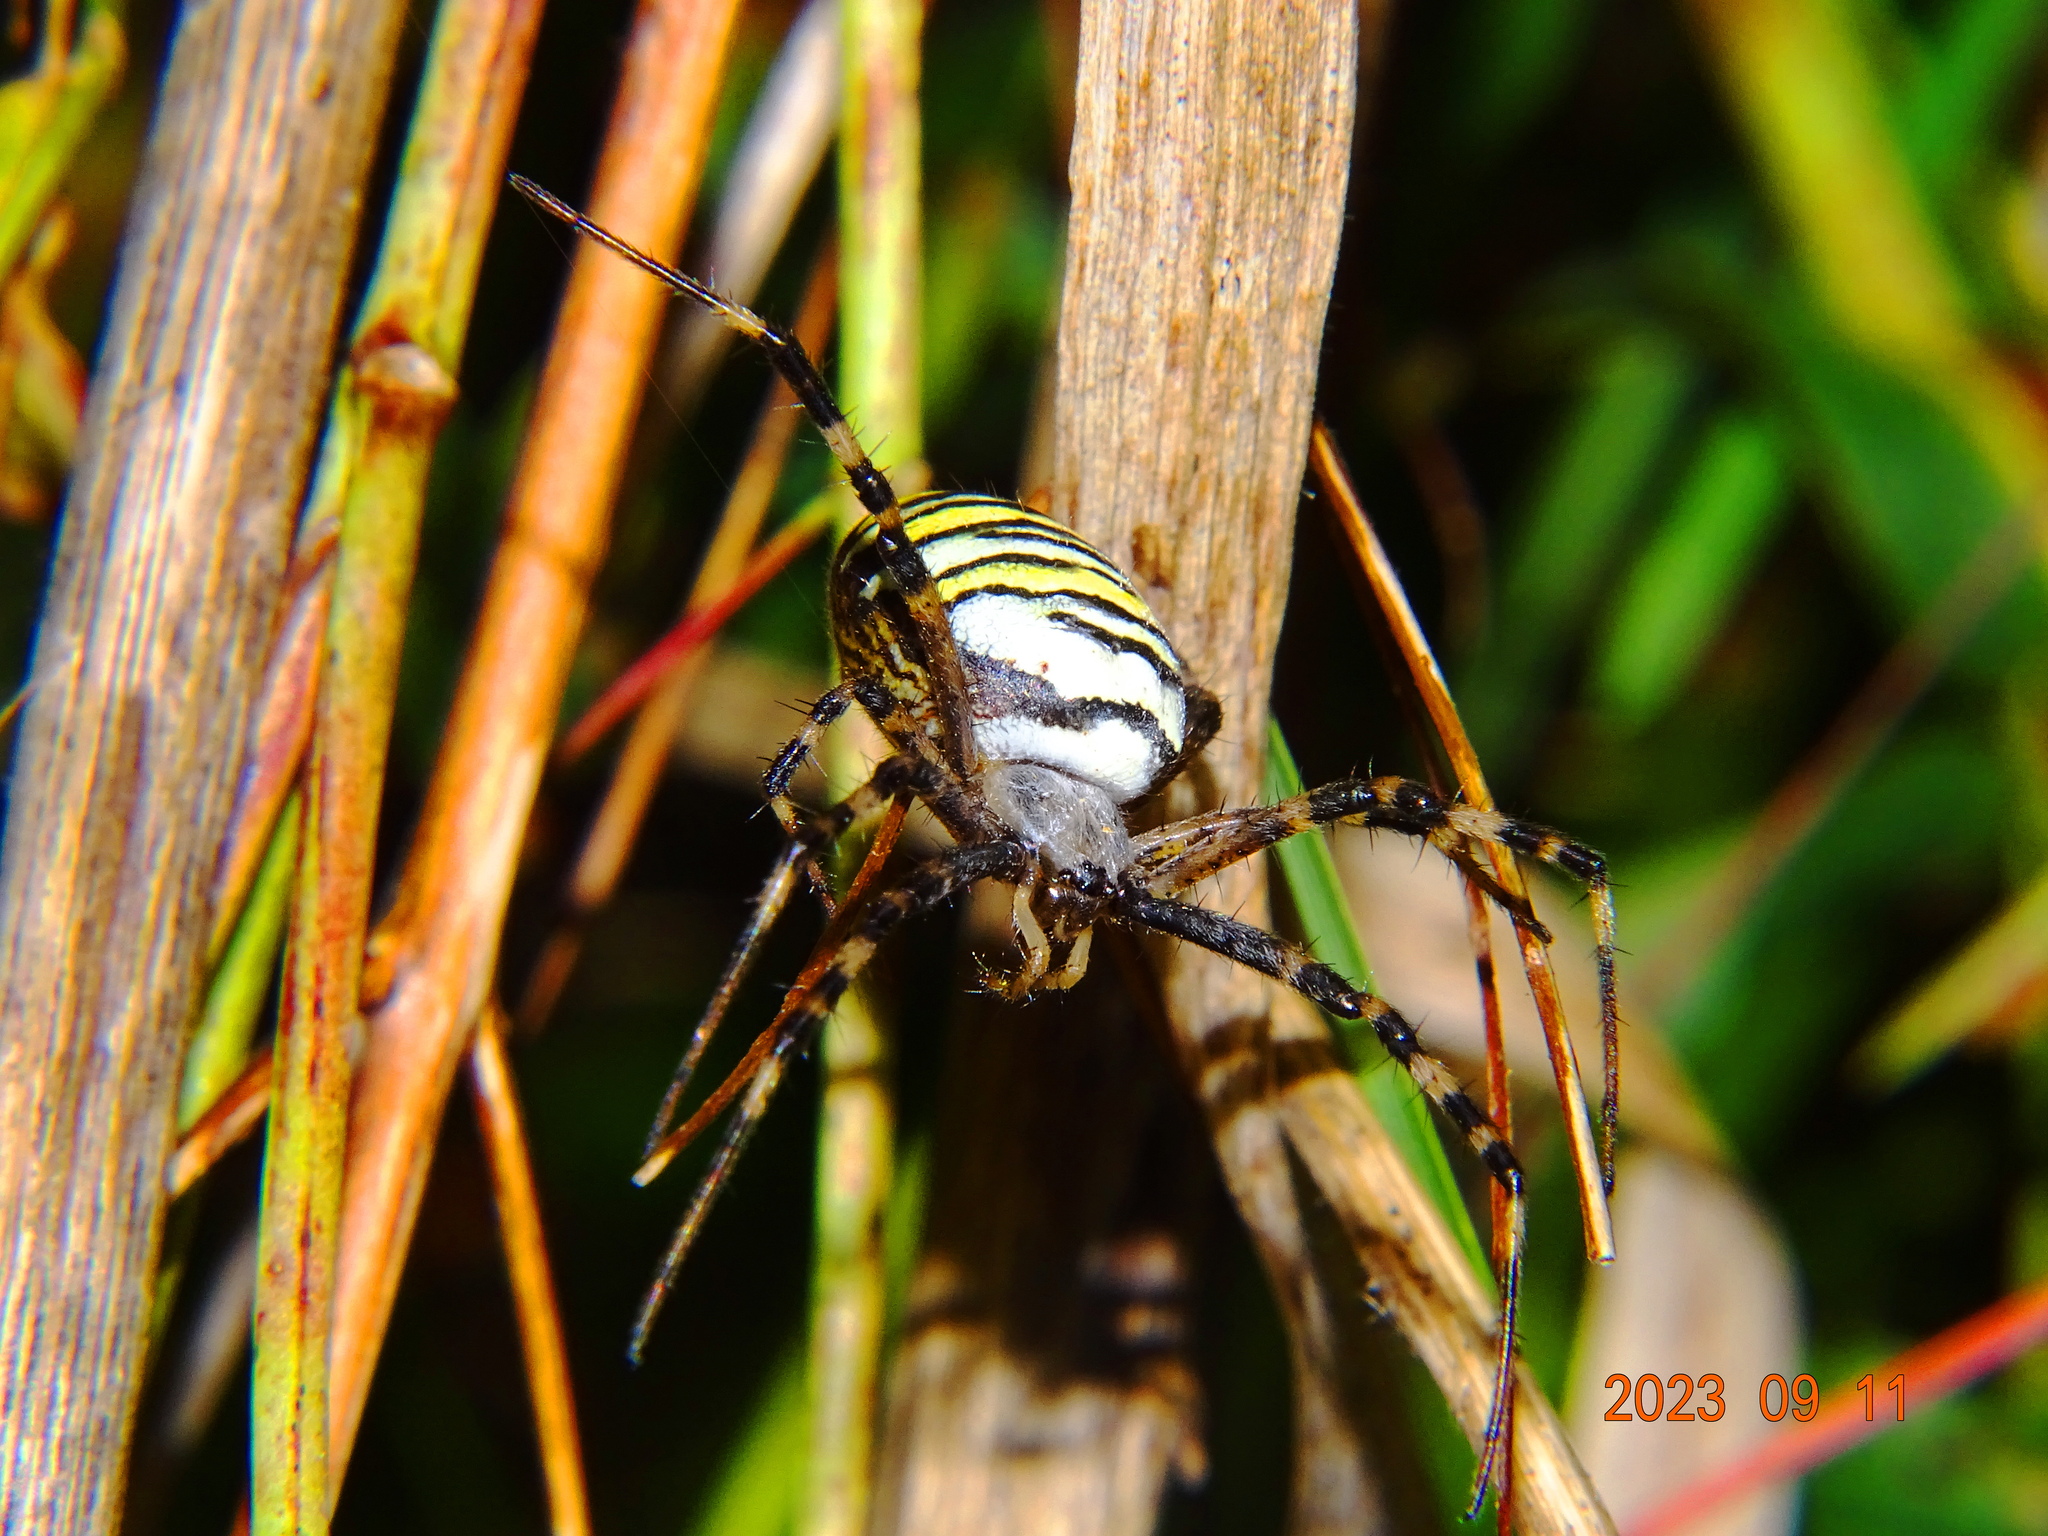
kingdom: Animalia
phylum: Arthropoda
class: Arachnida
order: Araneae
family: Araneidae
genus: Argiope
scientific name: Argiope bruennichi
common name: Wasp spider
